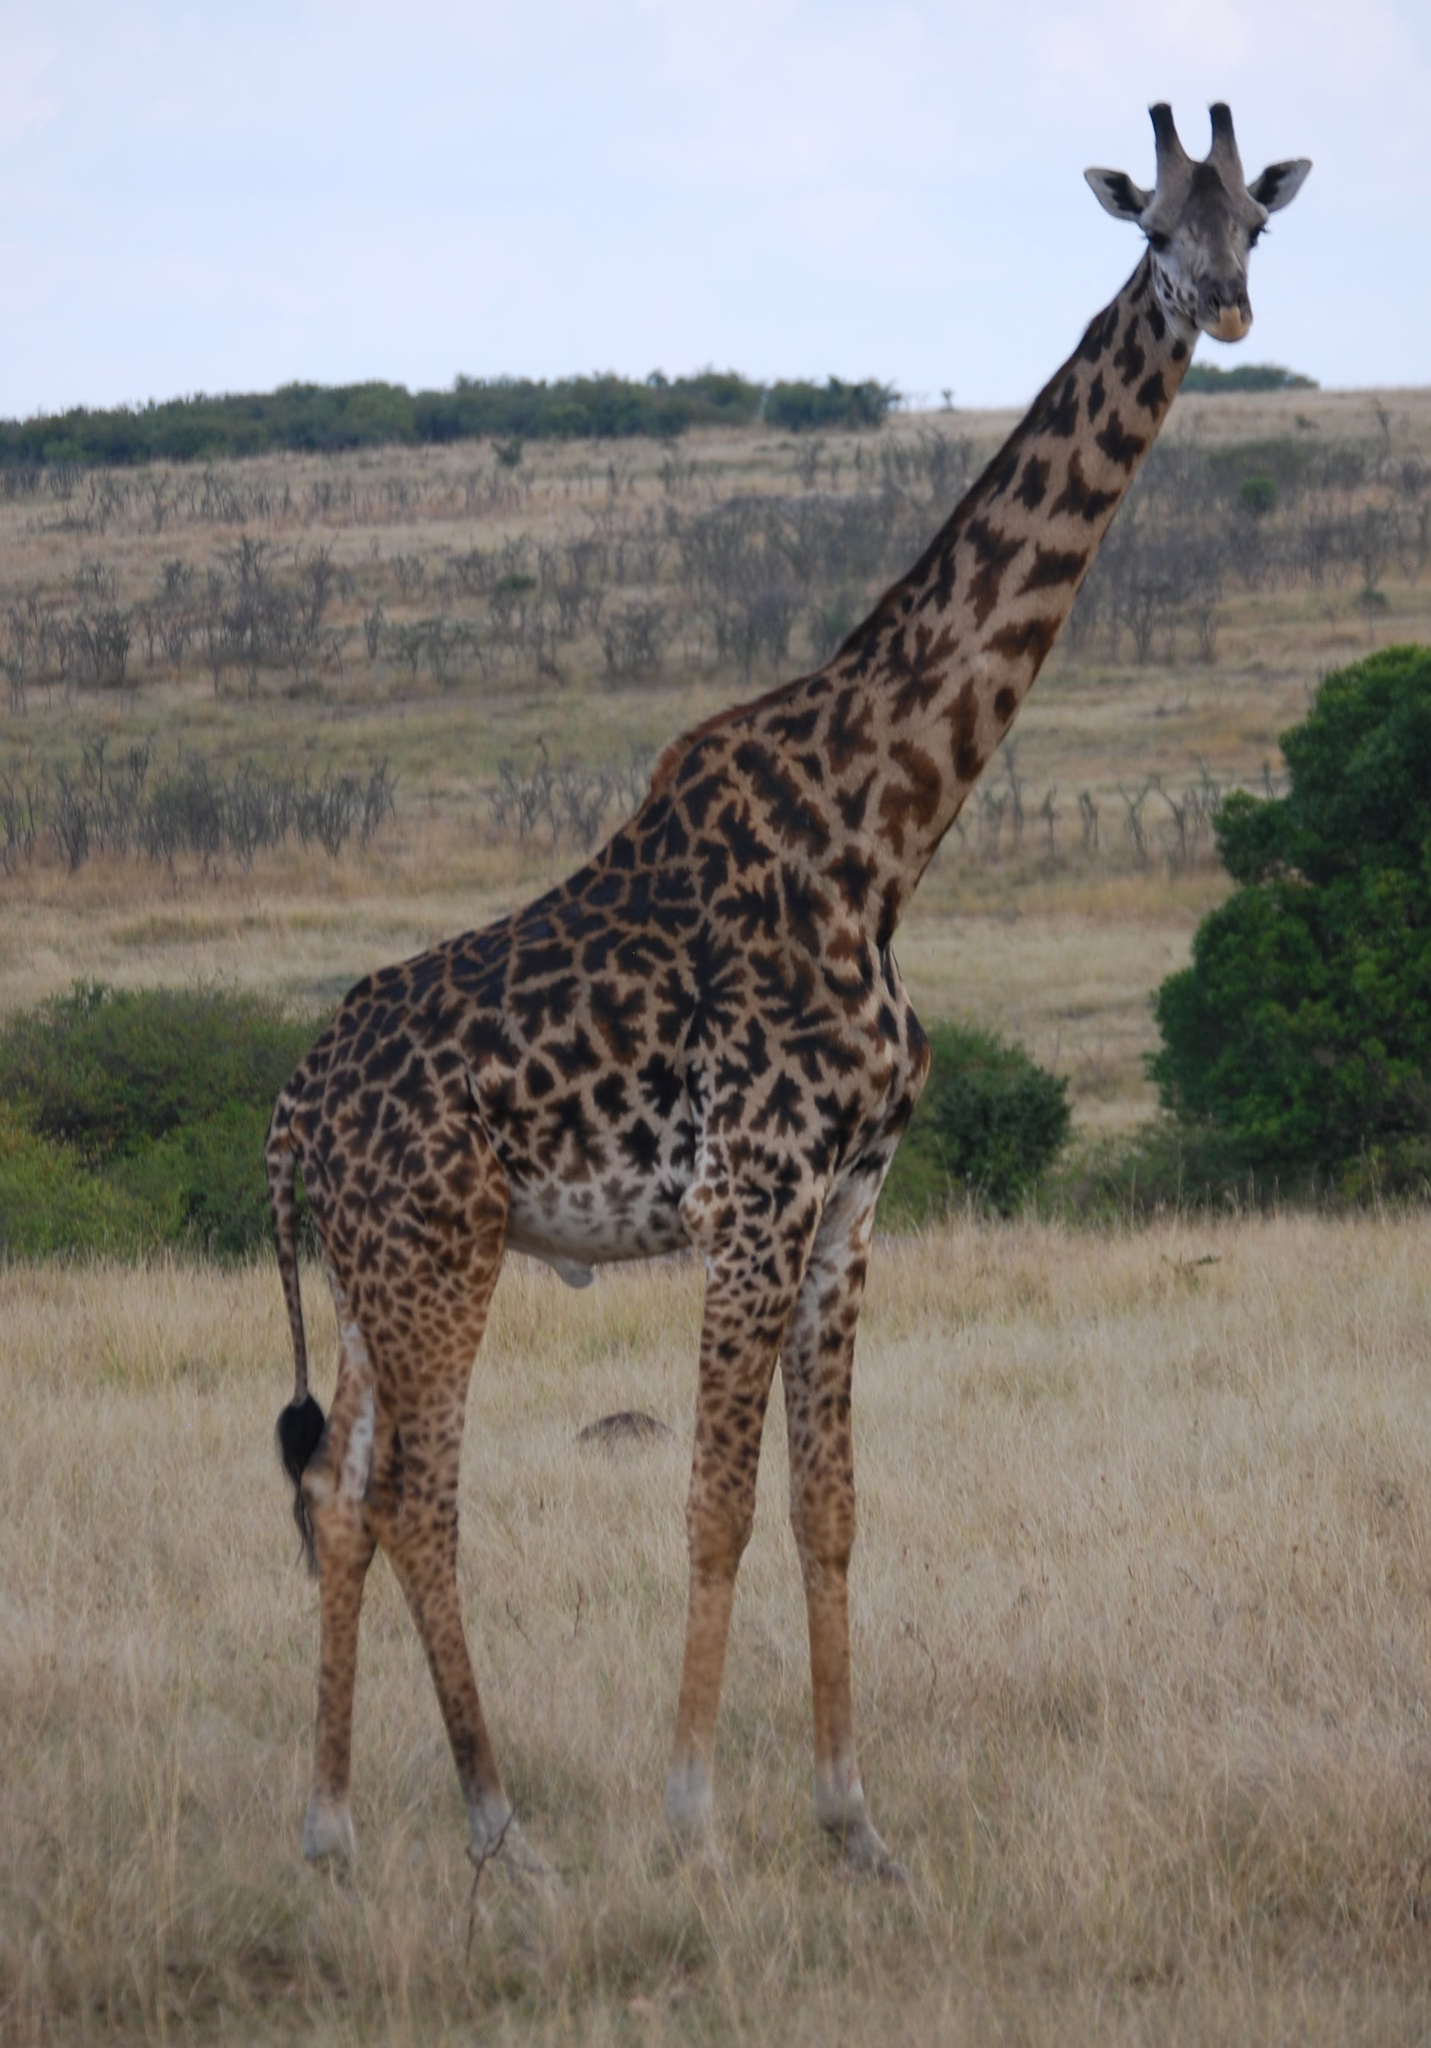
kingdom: Animalia
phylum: Chordata
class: Mammalia
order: Artiodactyla
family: Giraffidae
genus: Giraffa
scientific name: Giraffa tippelskirchi
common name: Masai giraffe
